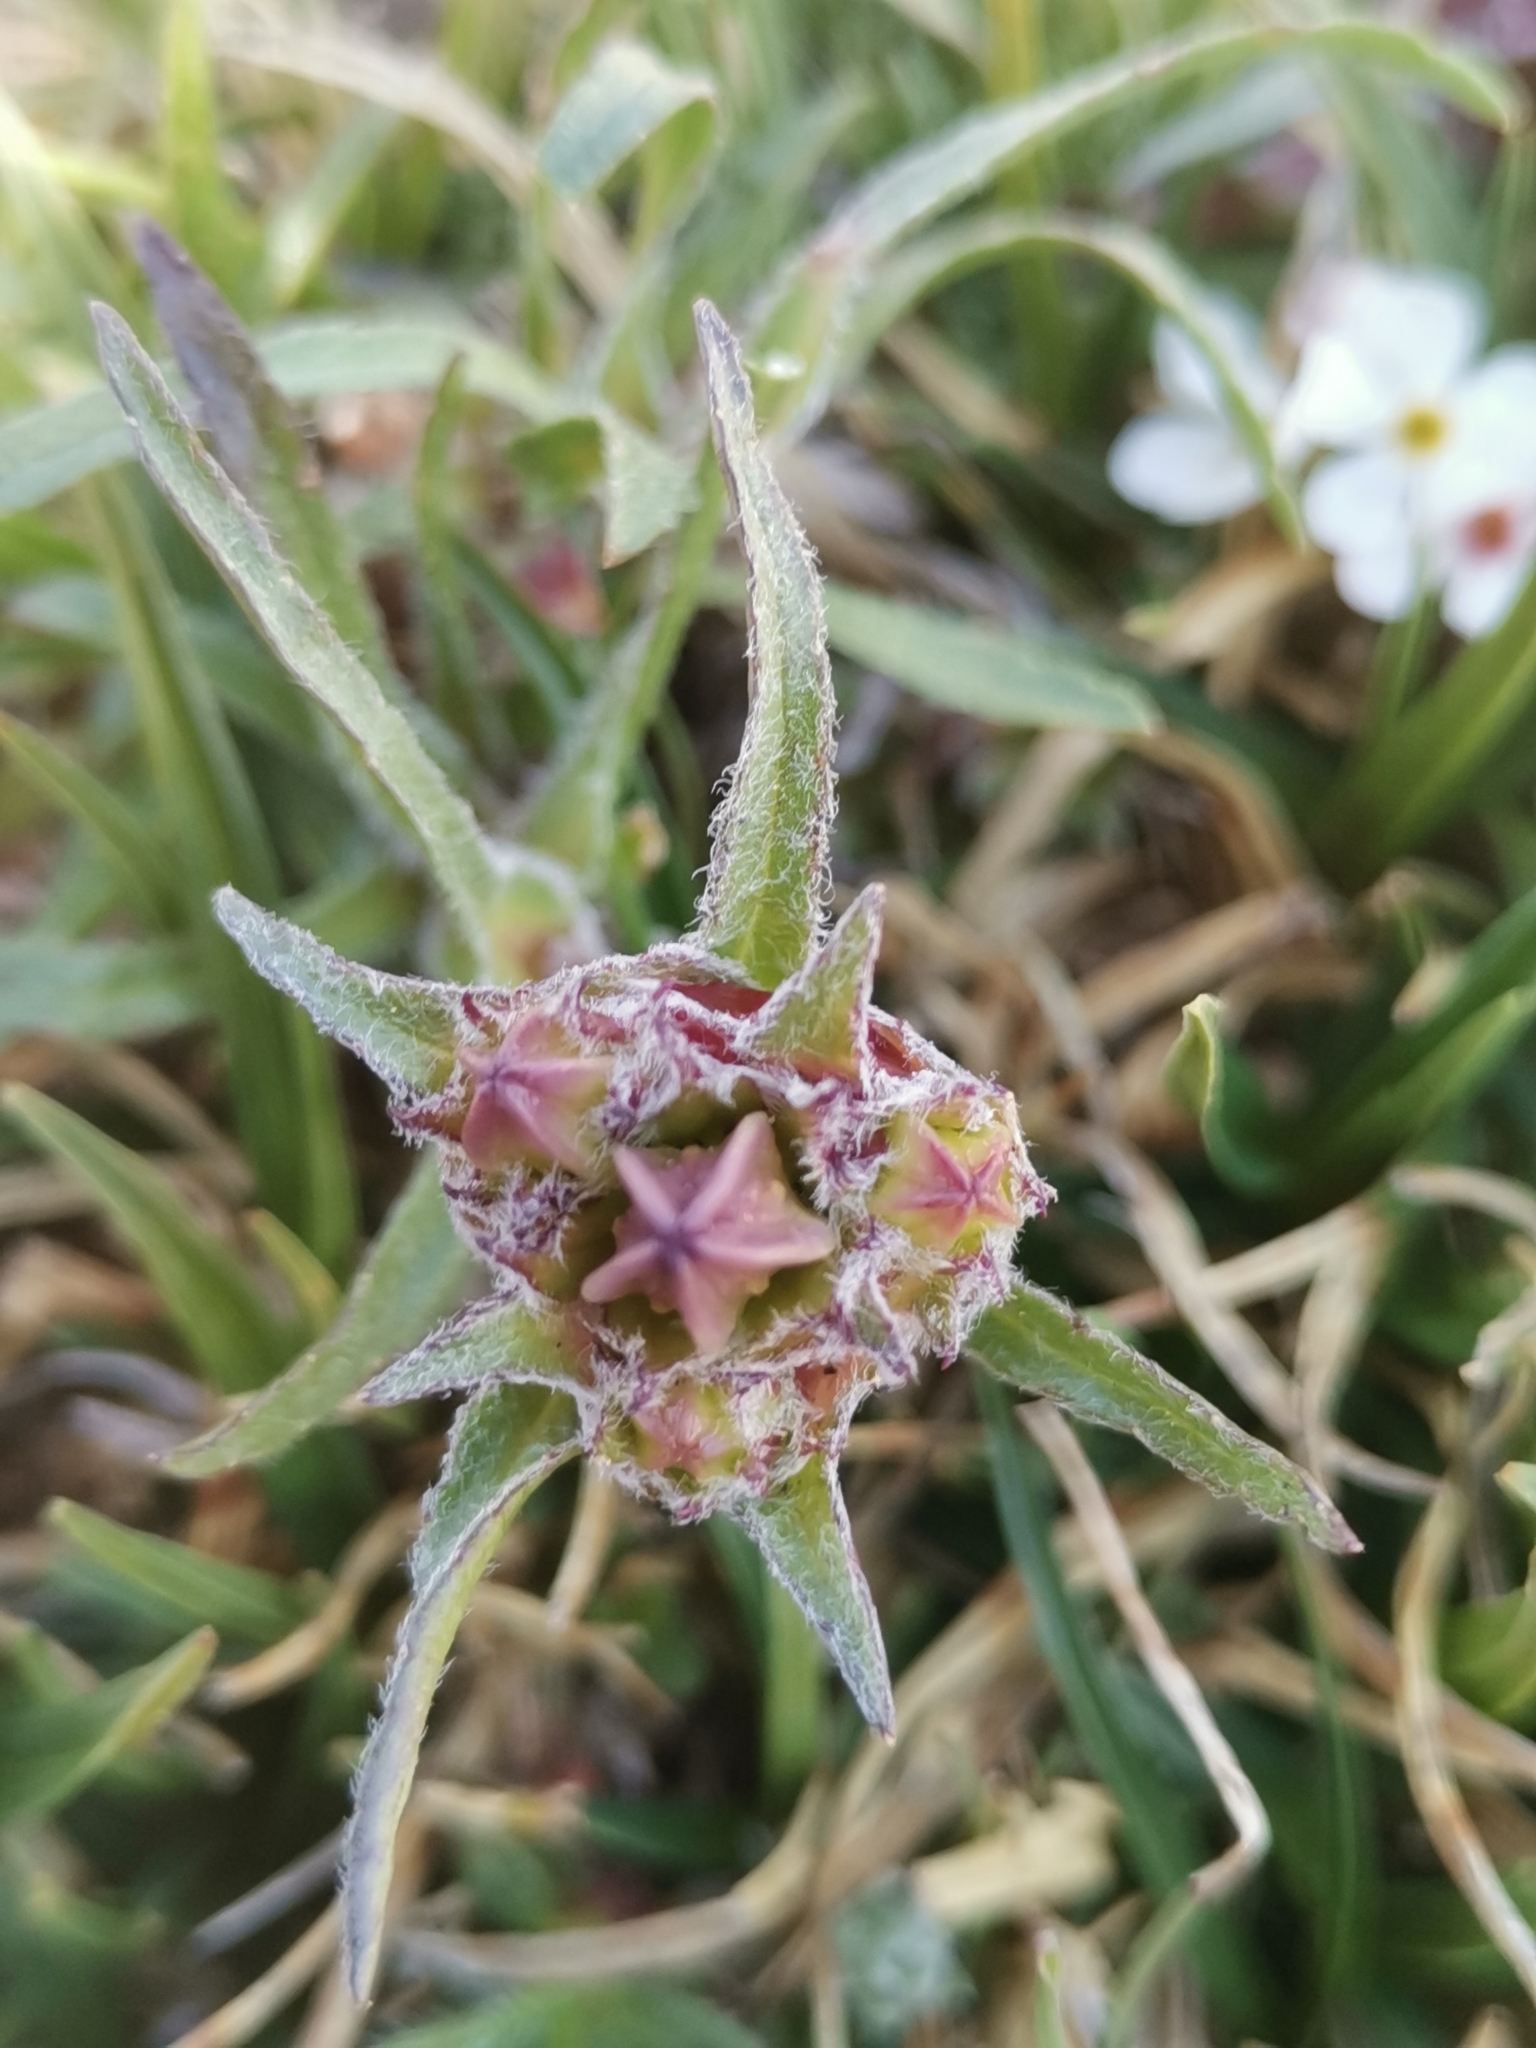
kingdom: Plantae
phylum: Tracheophyta
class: Magnoliopsida
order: Asterales
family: Campanulaceae
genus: Edraianthus
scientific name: Edraianthus graminifolius
